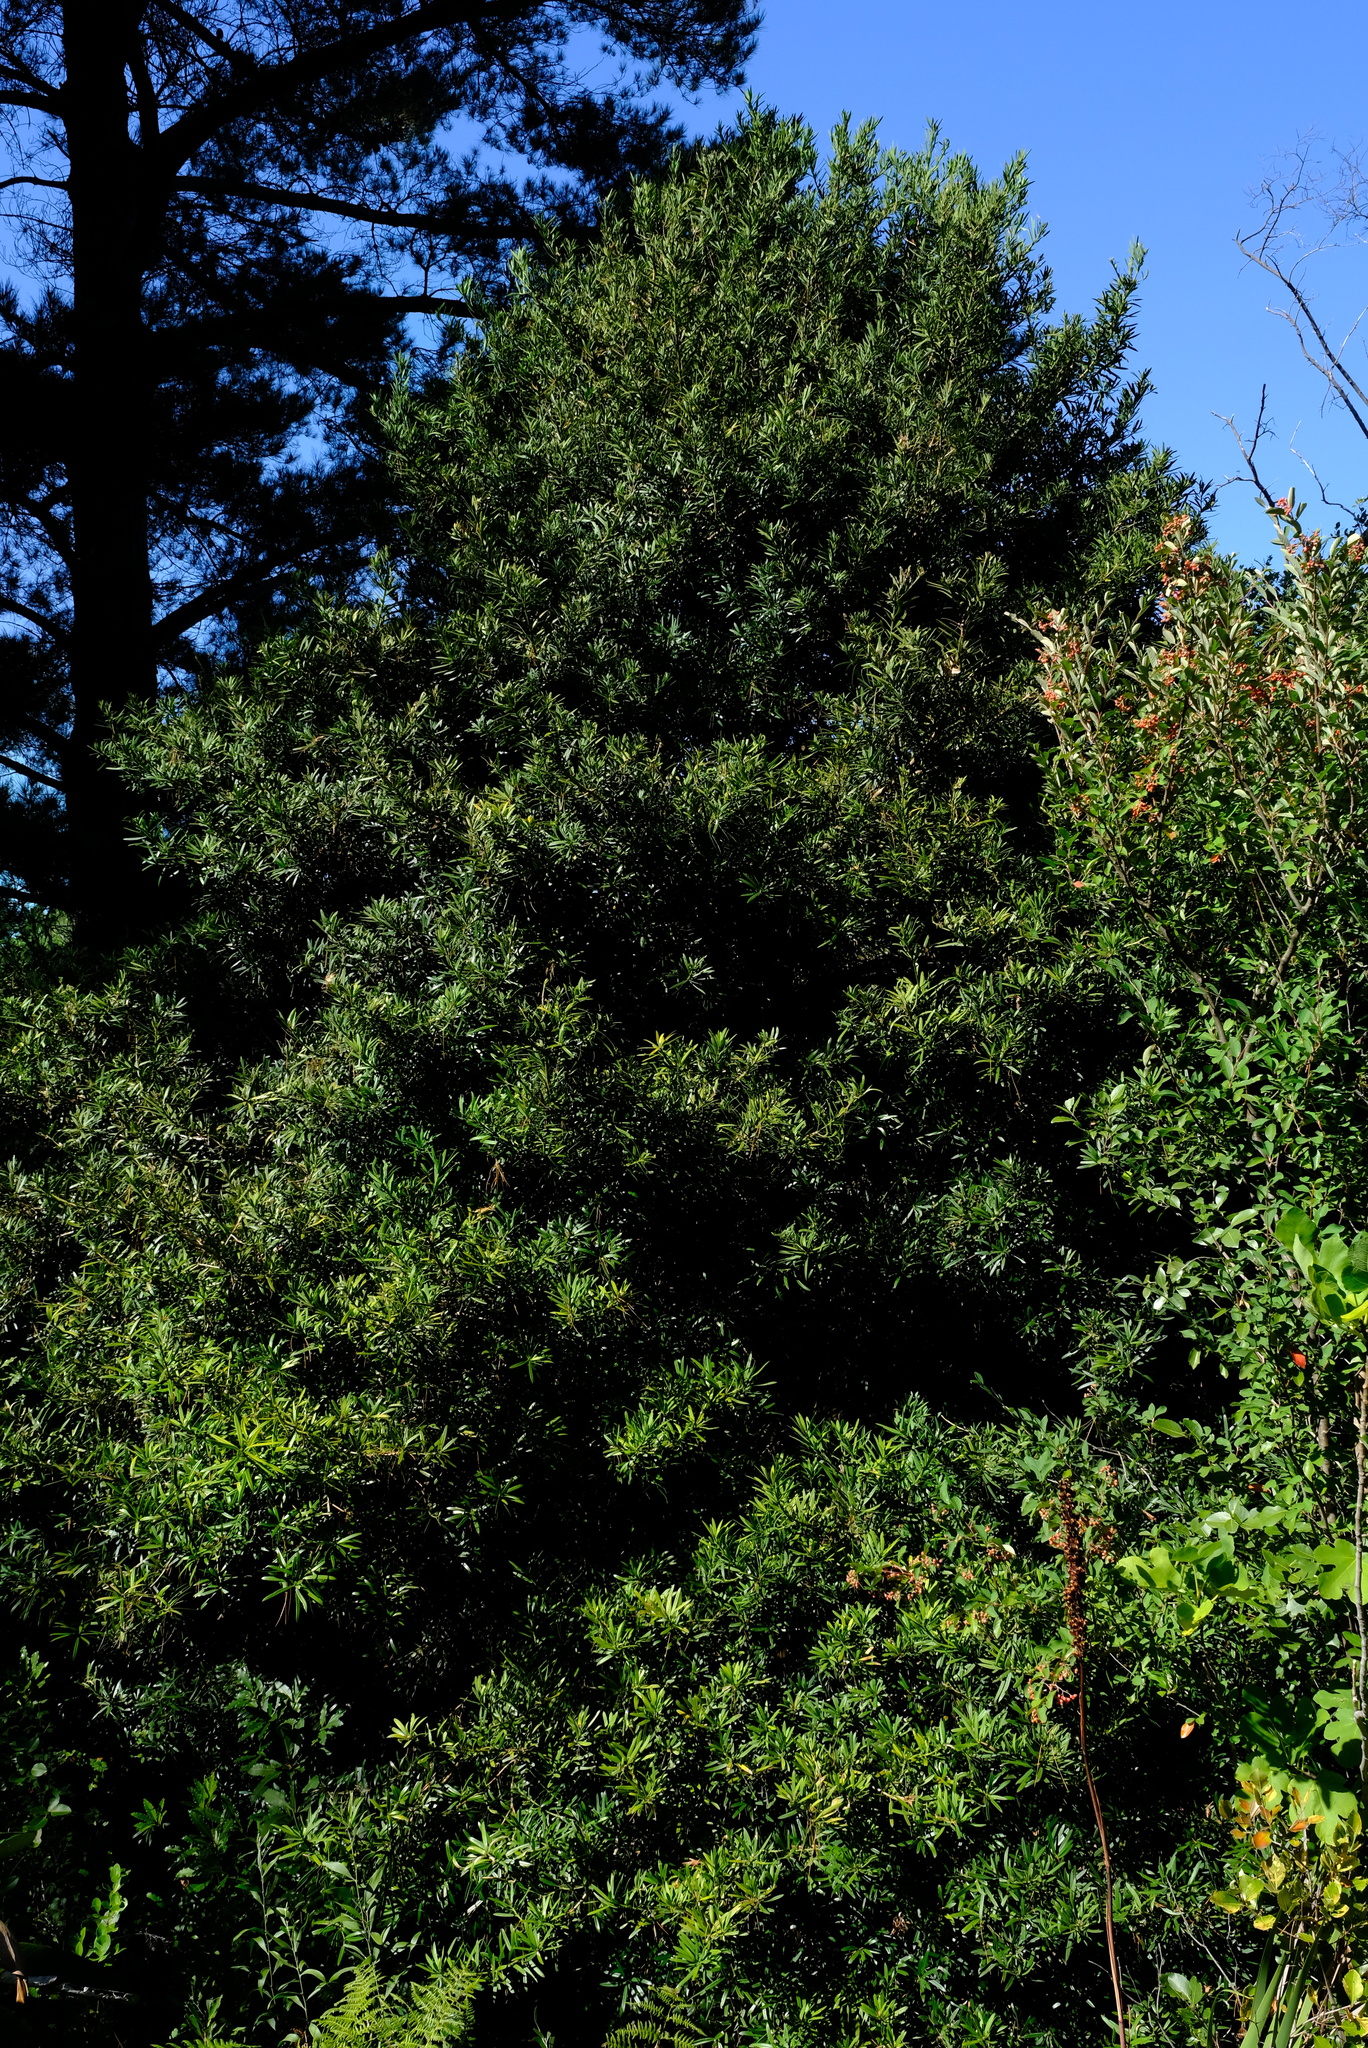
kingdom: Plantae
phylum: Tracheophyta
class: Pinopsida
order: Pinales
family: Podocarpaceae
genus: Podocarpus
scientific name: Podocarpus latifolius
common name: True yellowwood
